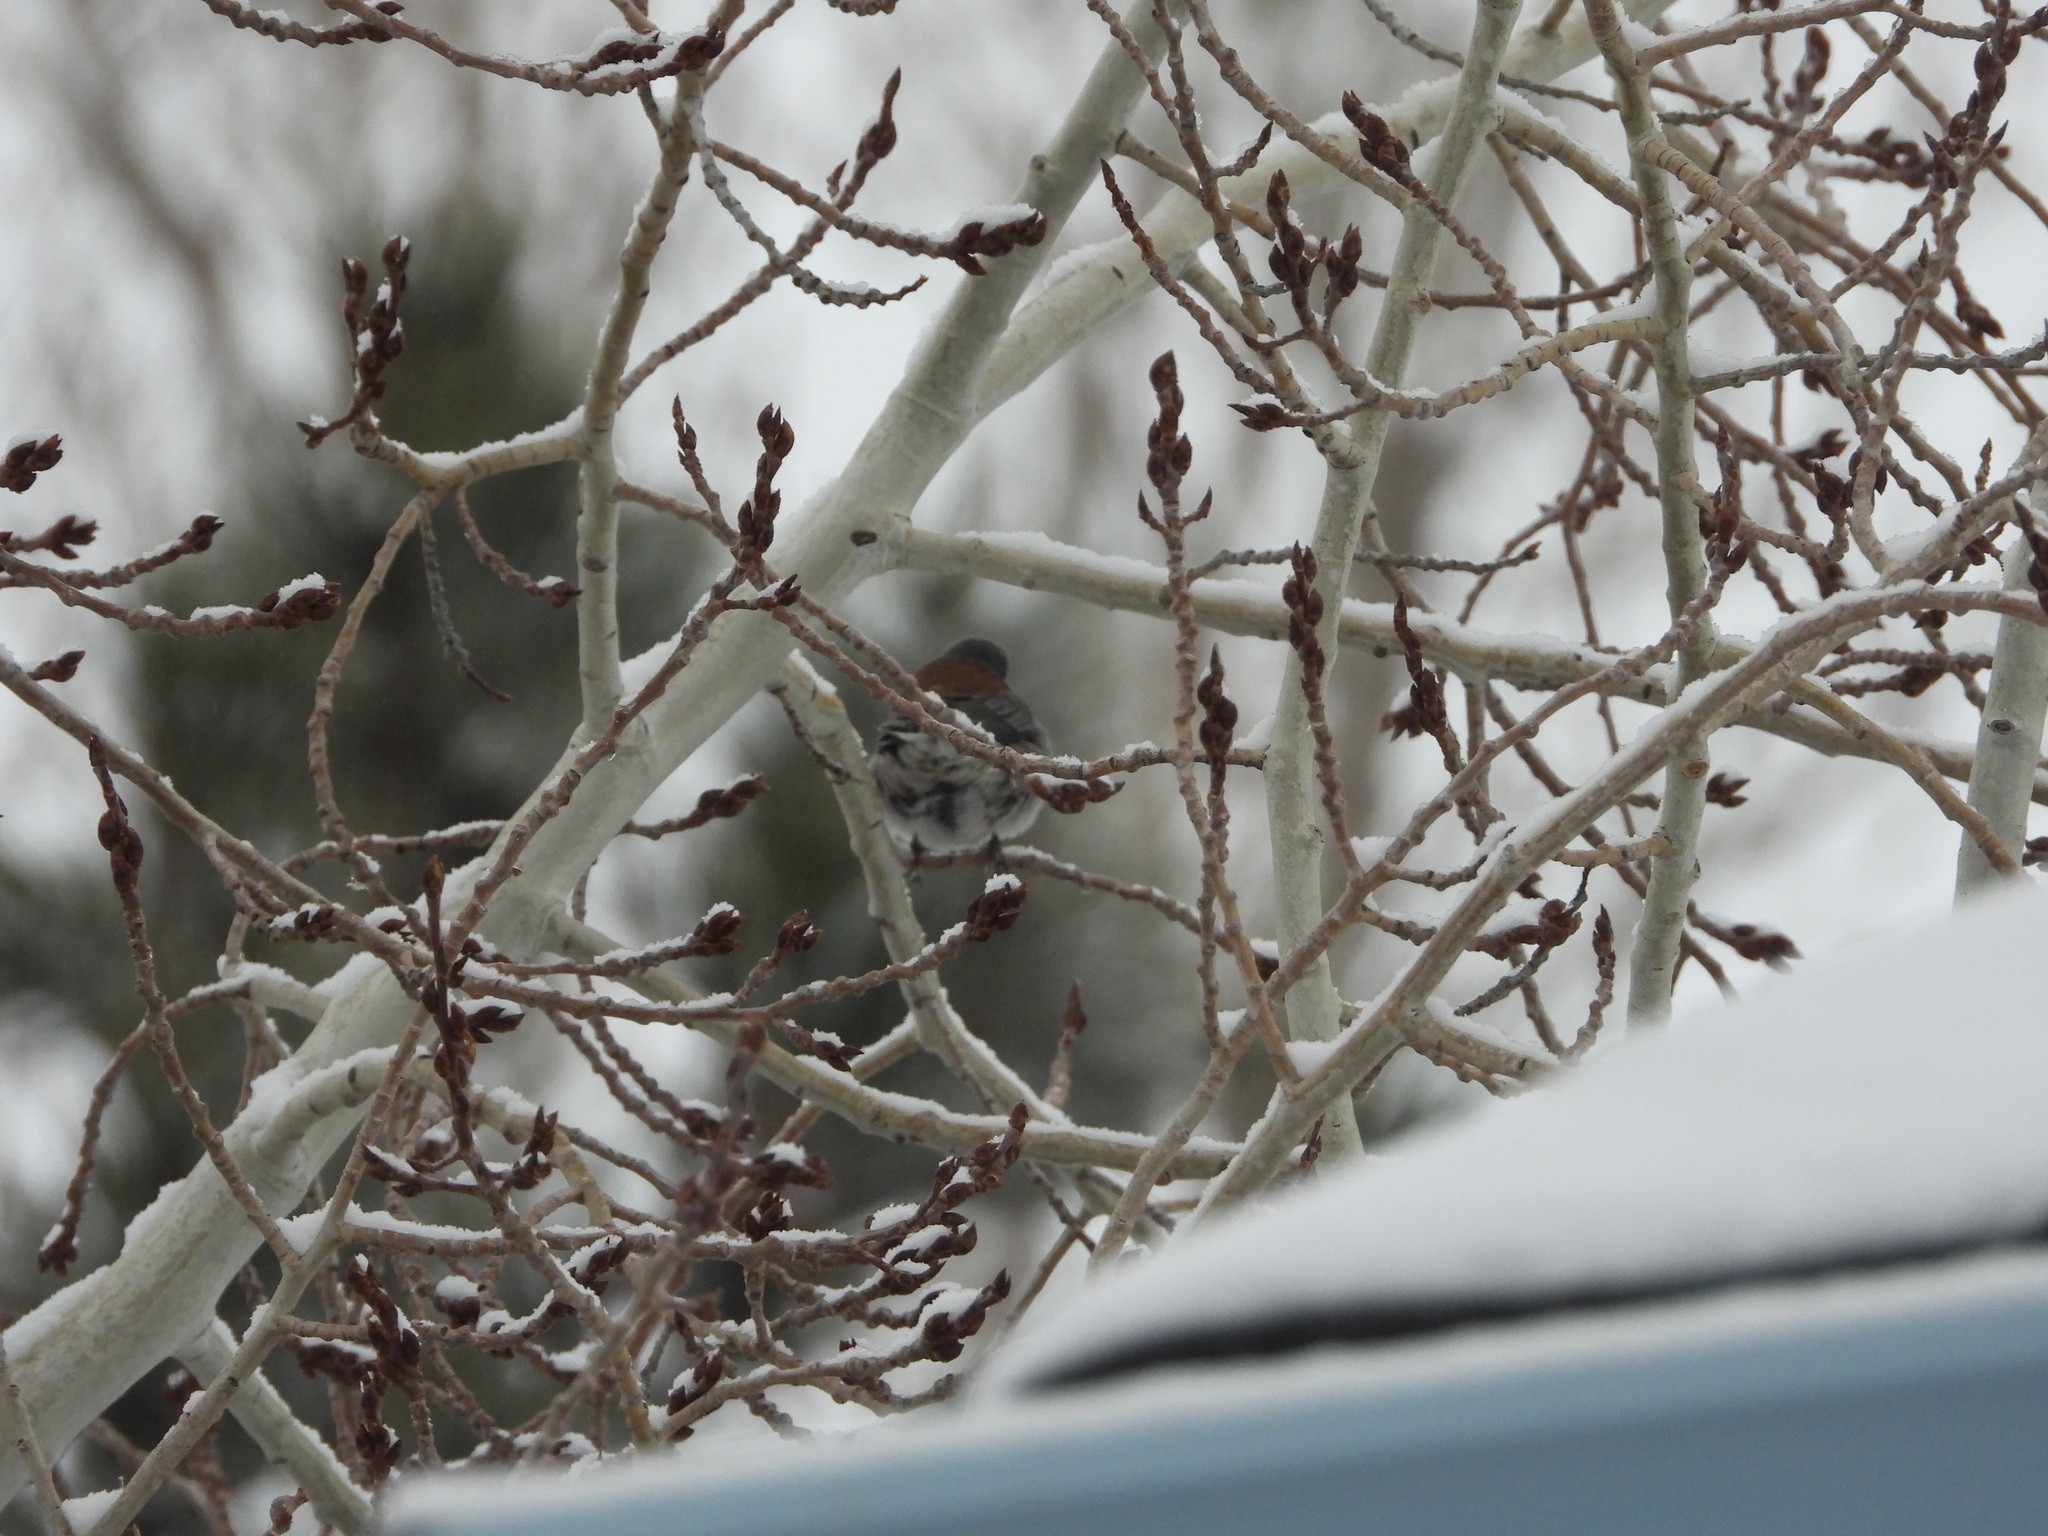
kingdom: Animalia
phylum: Chordata
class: Aves
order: Passeriformes
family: Passerellidae
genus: Junco
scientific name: Junco hyemalis
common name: Dark-eyed junco
